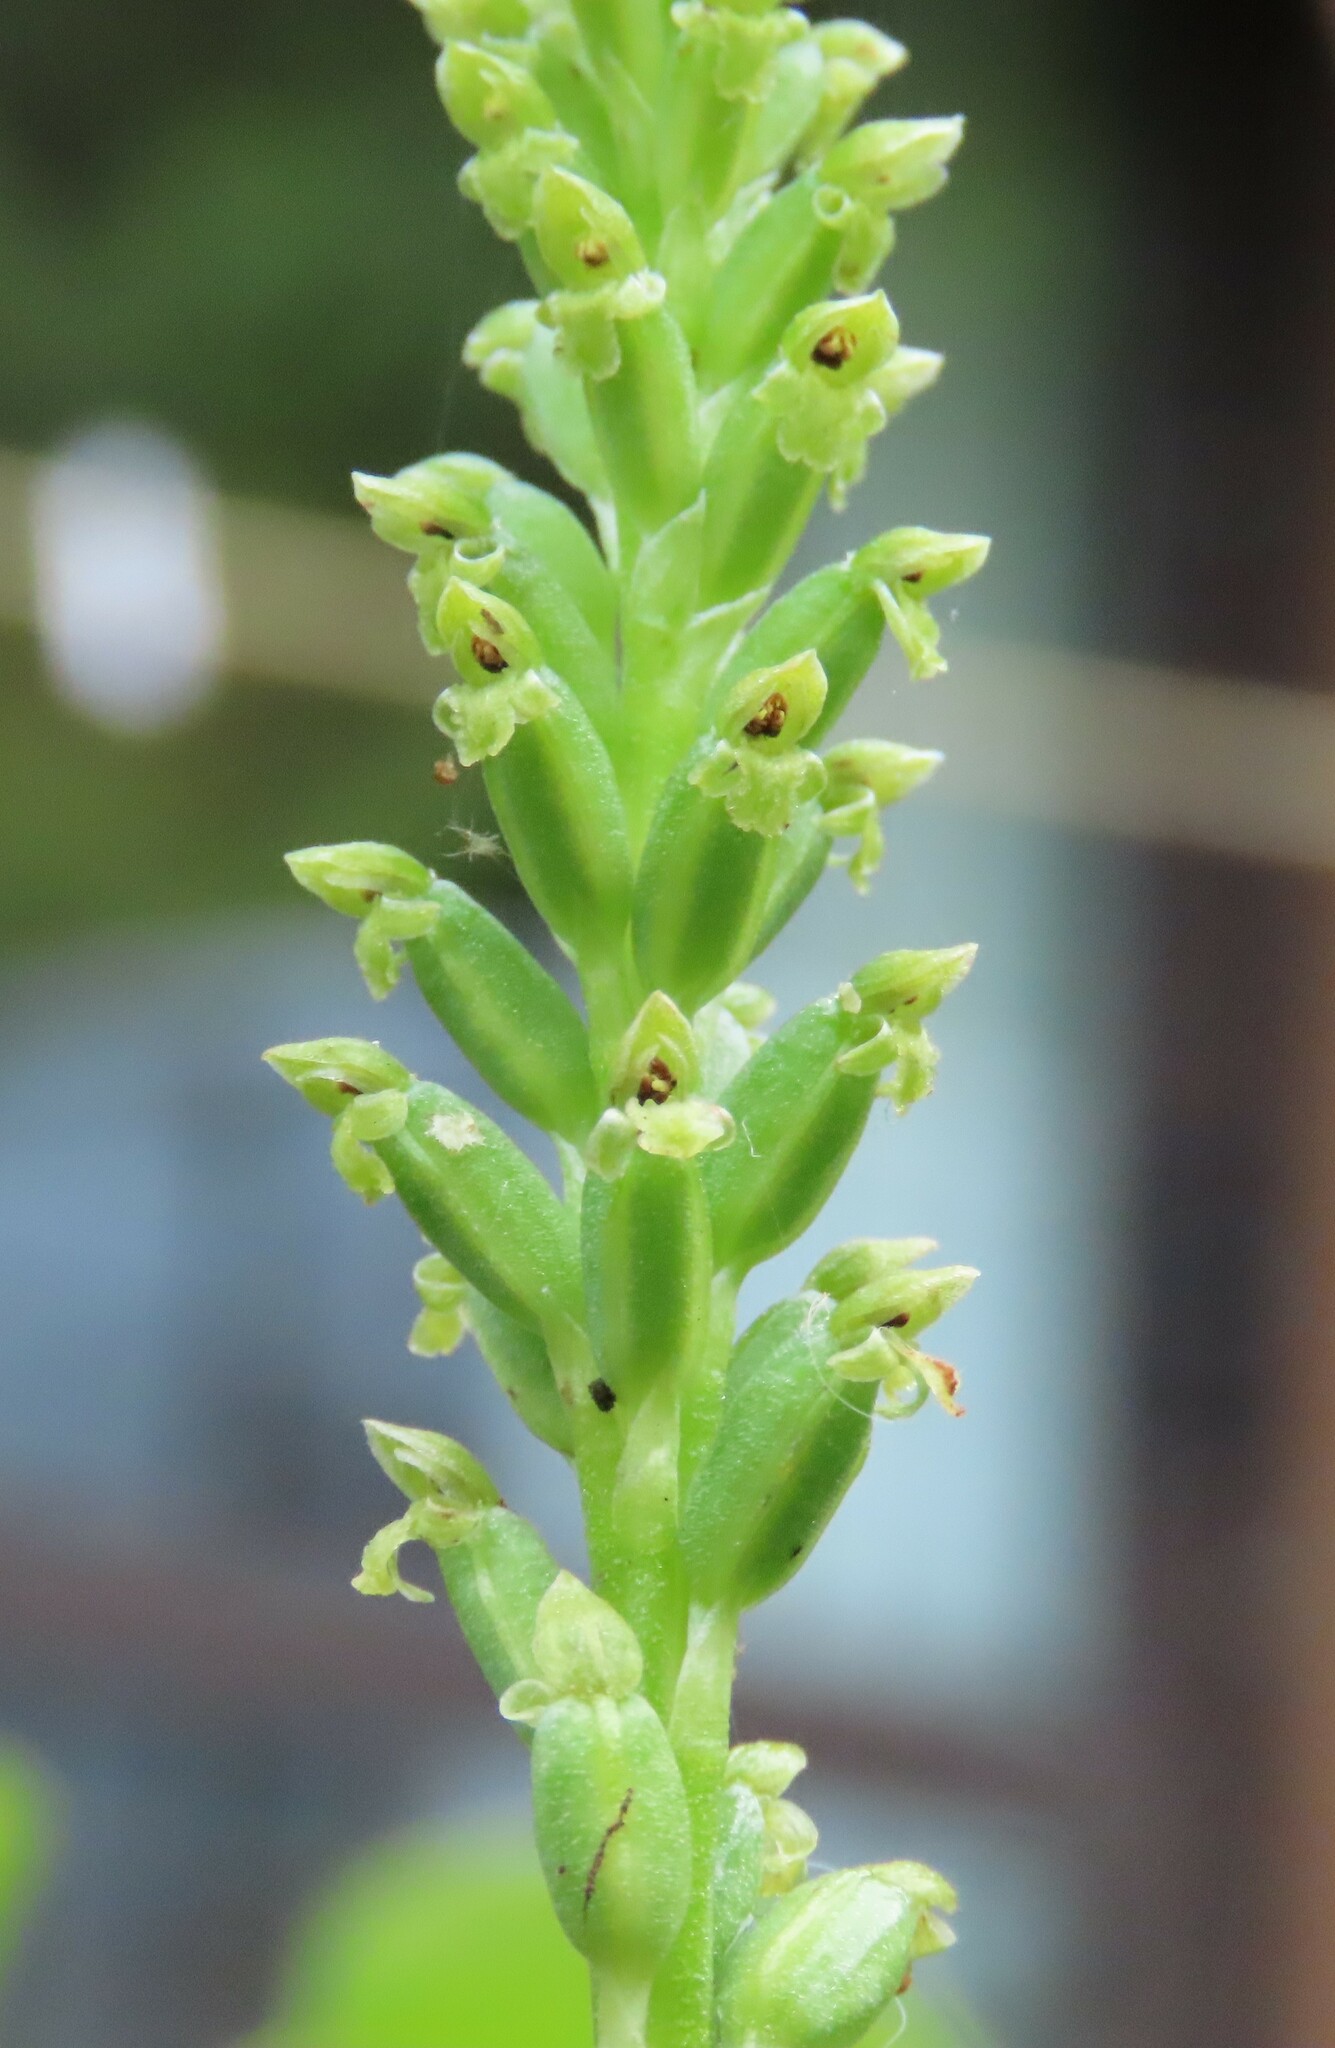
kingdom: Plantae
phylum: Tracheophyta
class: Liliopsida
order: Asparagales
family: Orchidaceae
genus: Microtis
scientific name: Microtis unifolia
